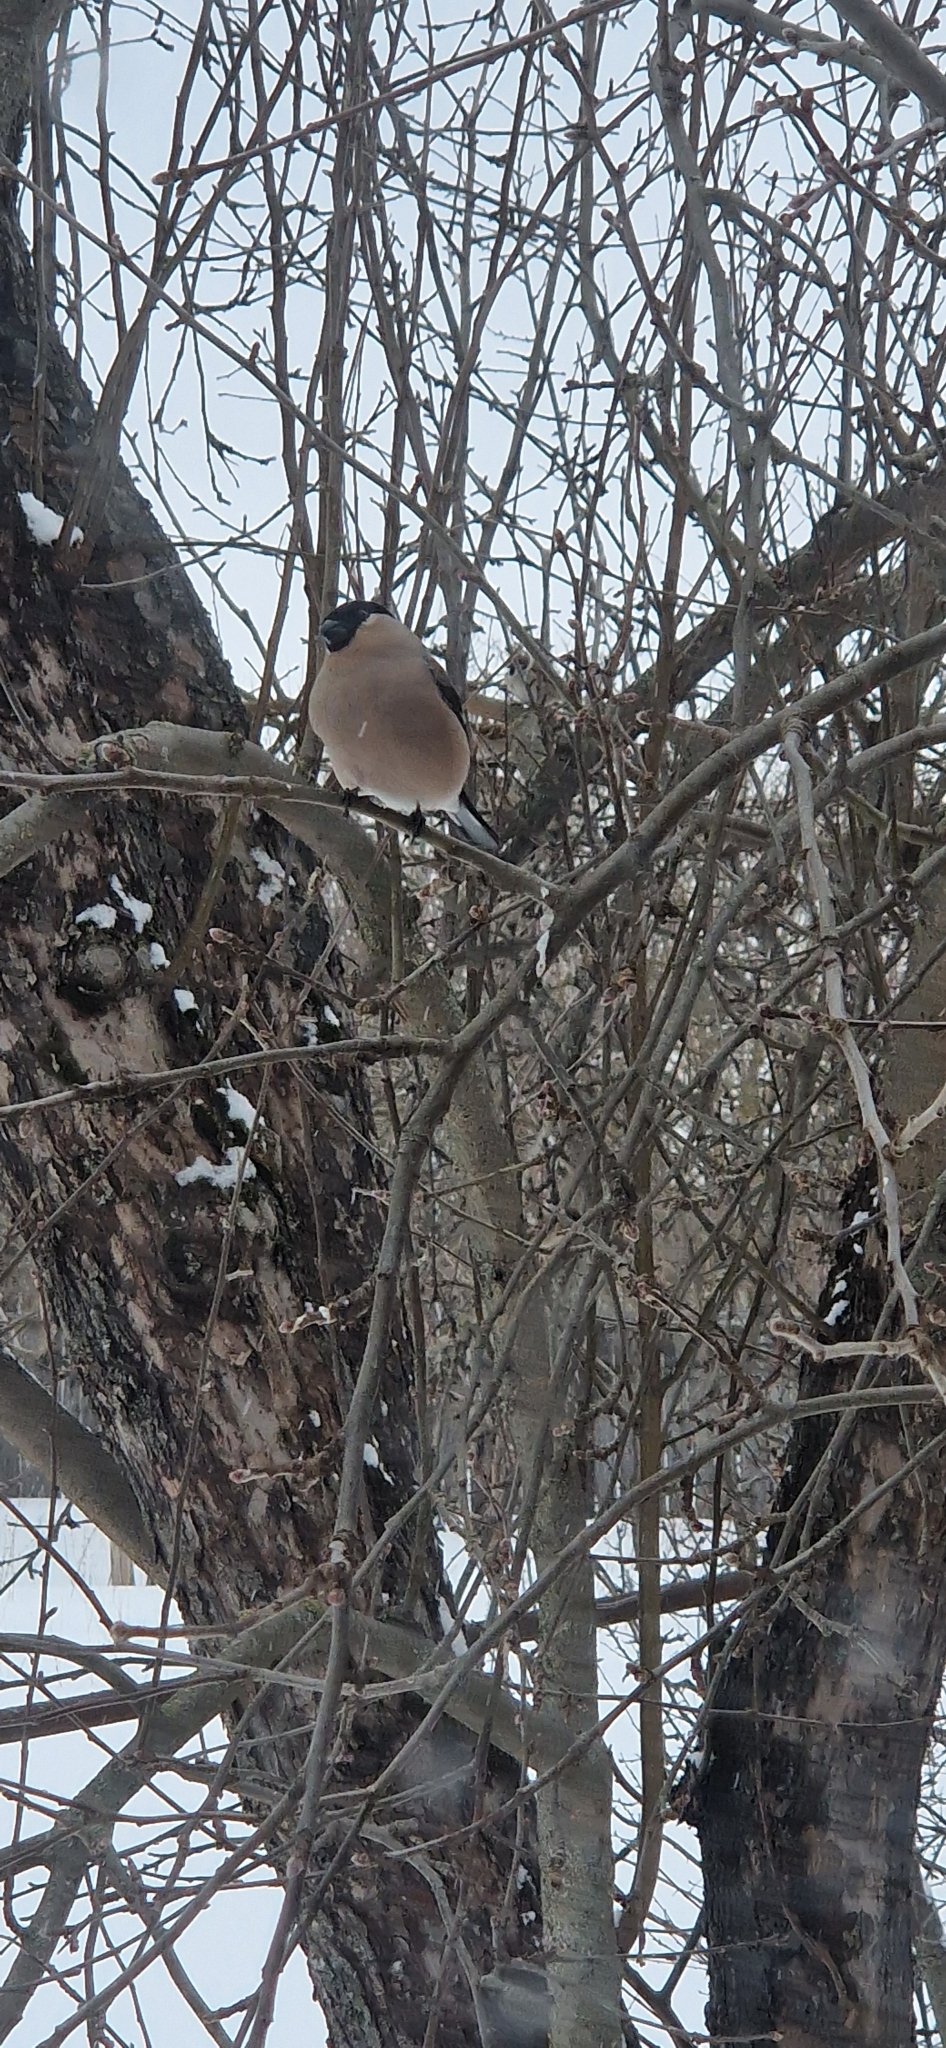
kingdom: Animalia
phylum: Chordata
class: Aves
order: Passeriformes
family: Fringillidae
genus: Pyrrhula
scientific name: Pyrrhula pyrrhula
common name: Eurasian bullfinch
